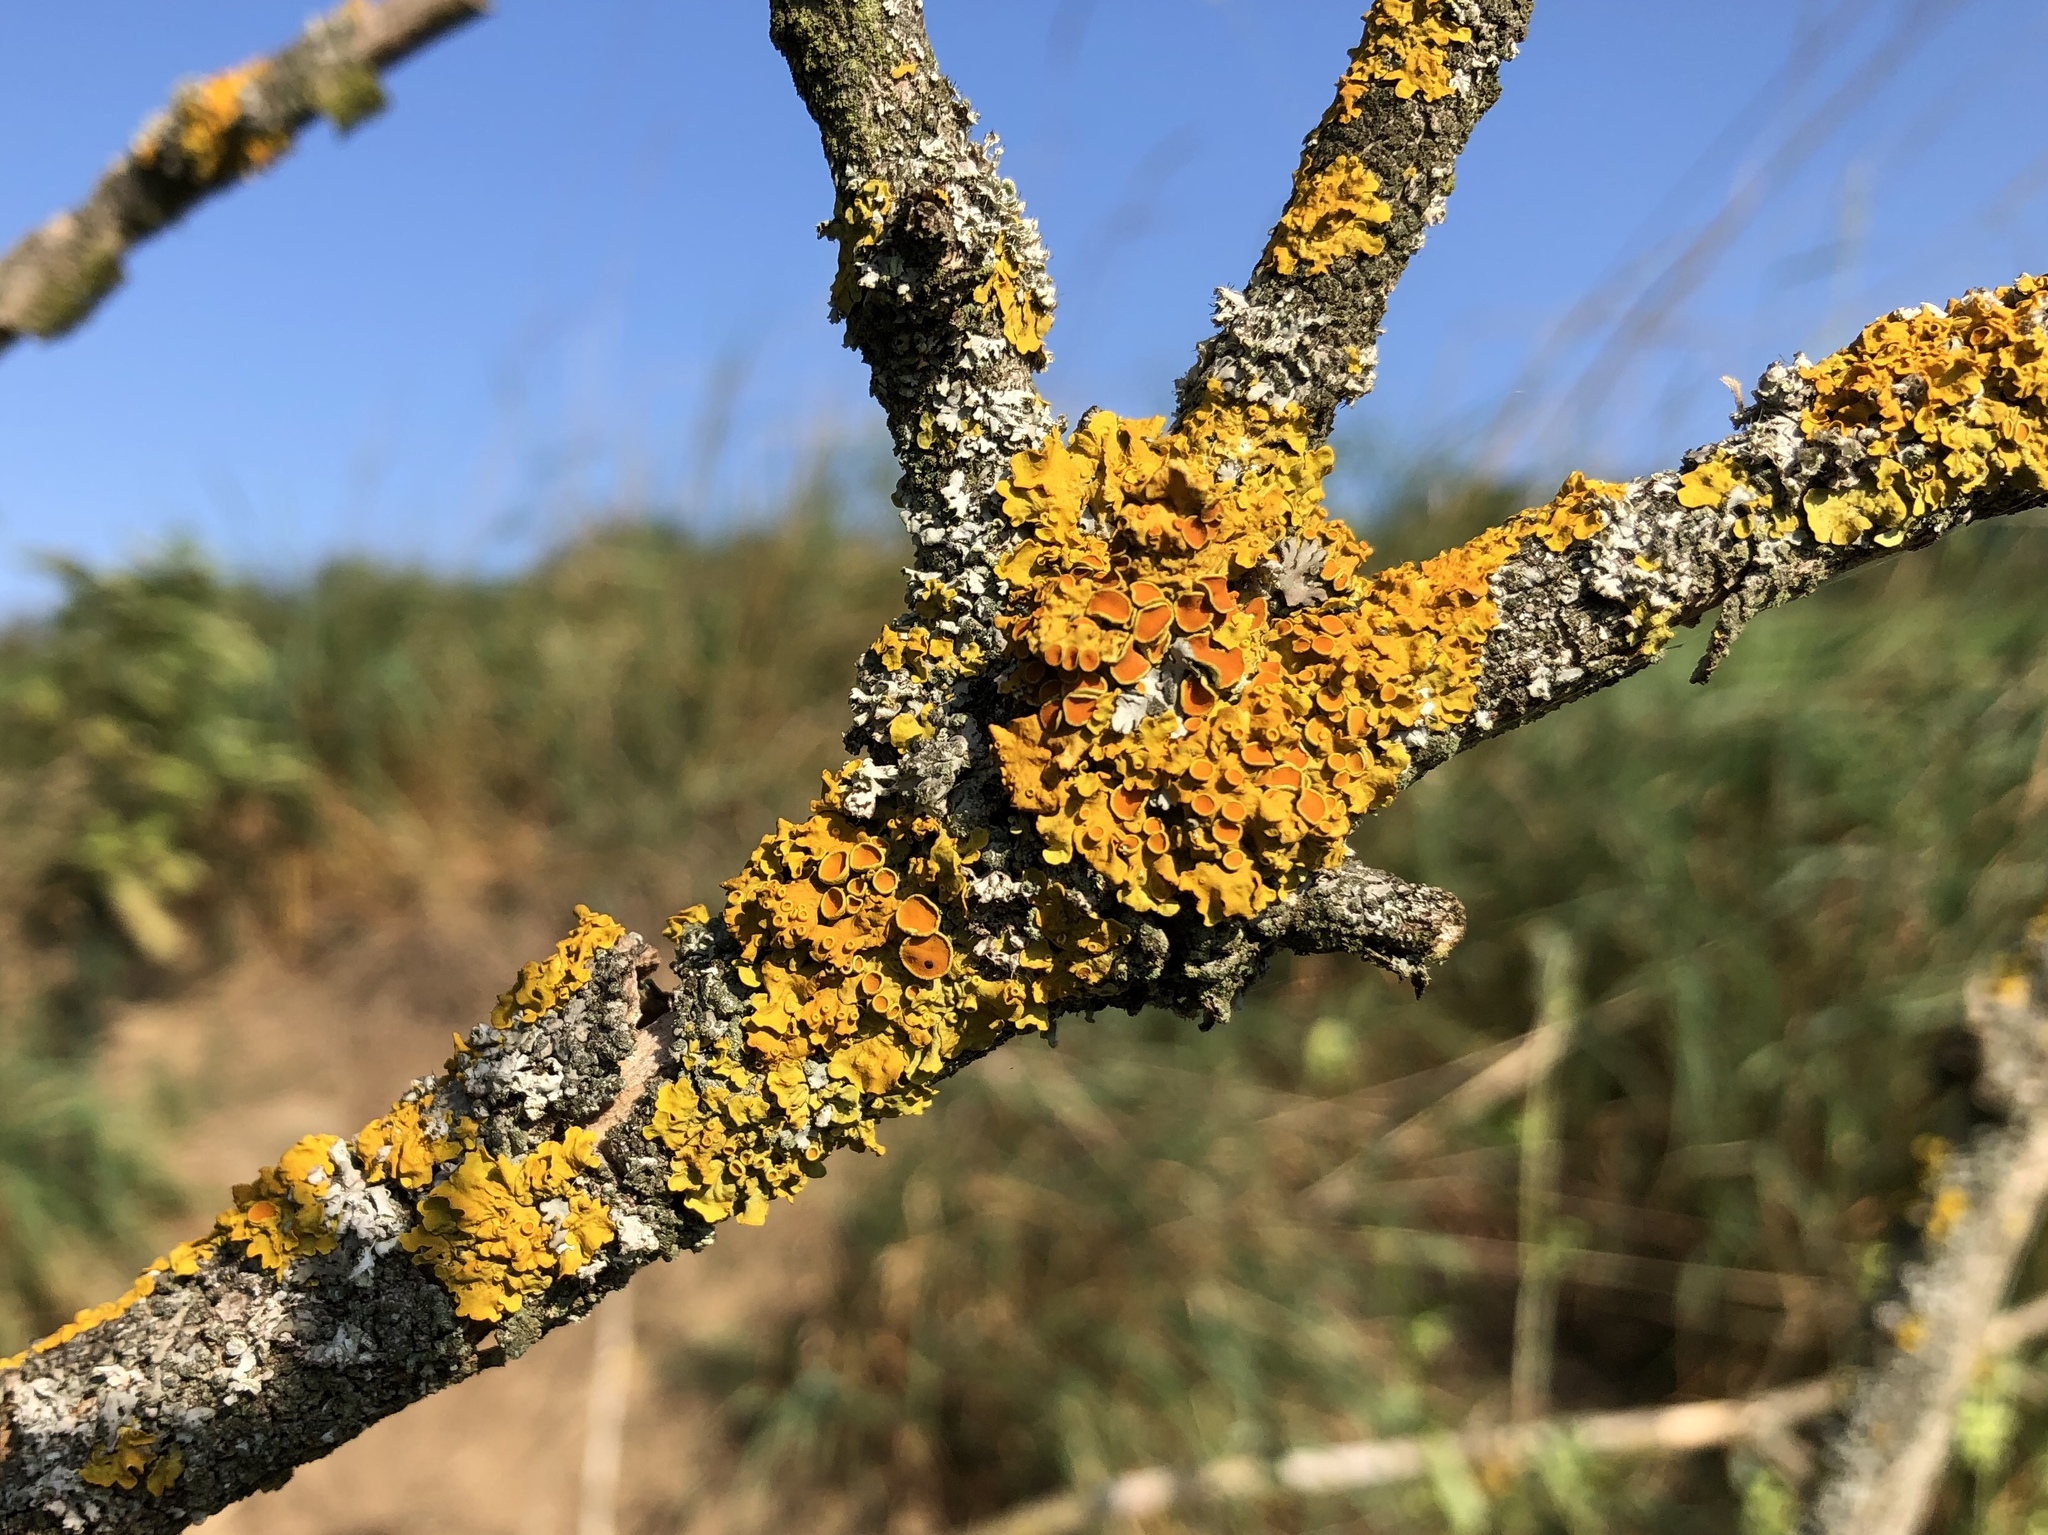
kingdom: Fungi
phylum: Ascomycota
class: Lecanoromycetes
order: Teloschistales
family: Teloschistaceae
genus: Xanthoria
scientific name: Xanthoria parietina
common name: Common orange lichen
